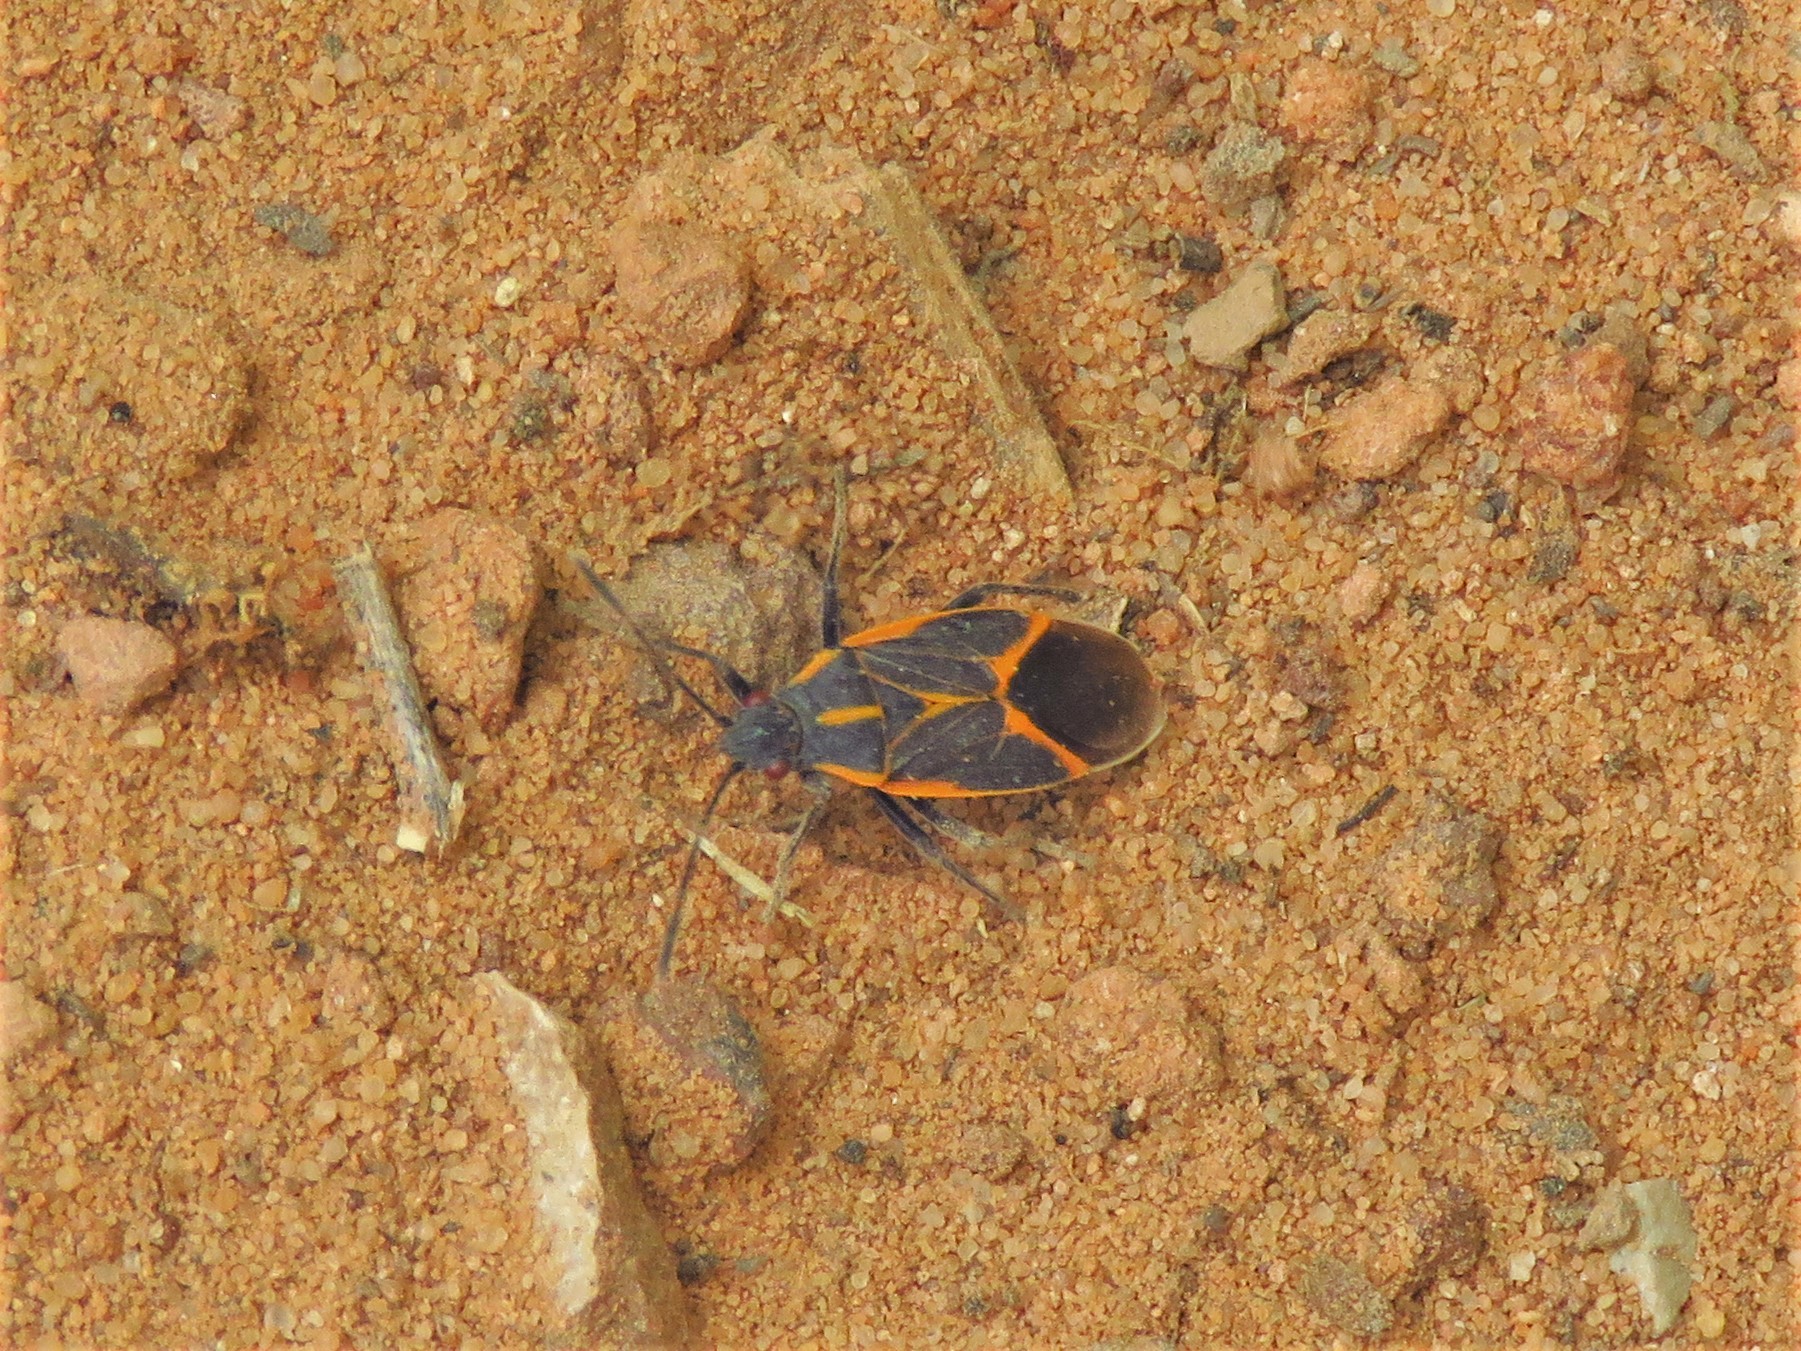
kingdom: Animalia
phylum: Arthropoda
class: Insecta
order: Hemiptera
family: Rhopalidae
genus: Boisea
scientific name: Boisea trivittata
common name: Boxelder bug
